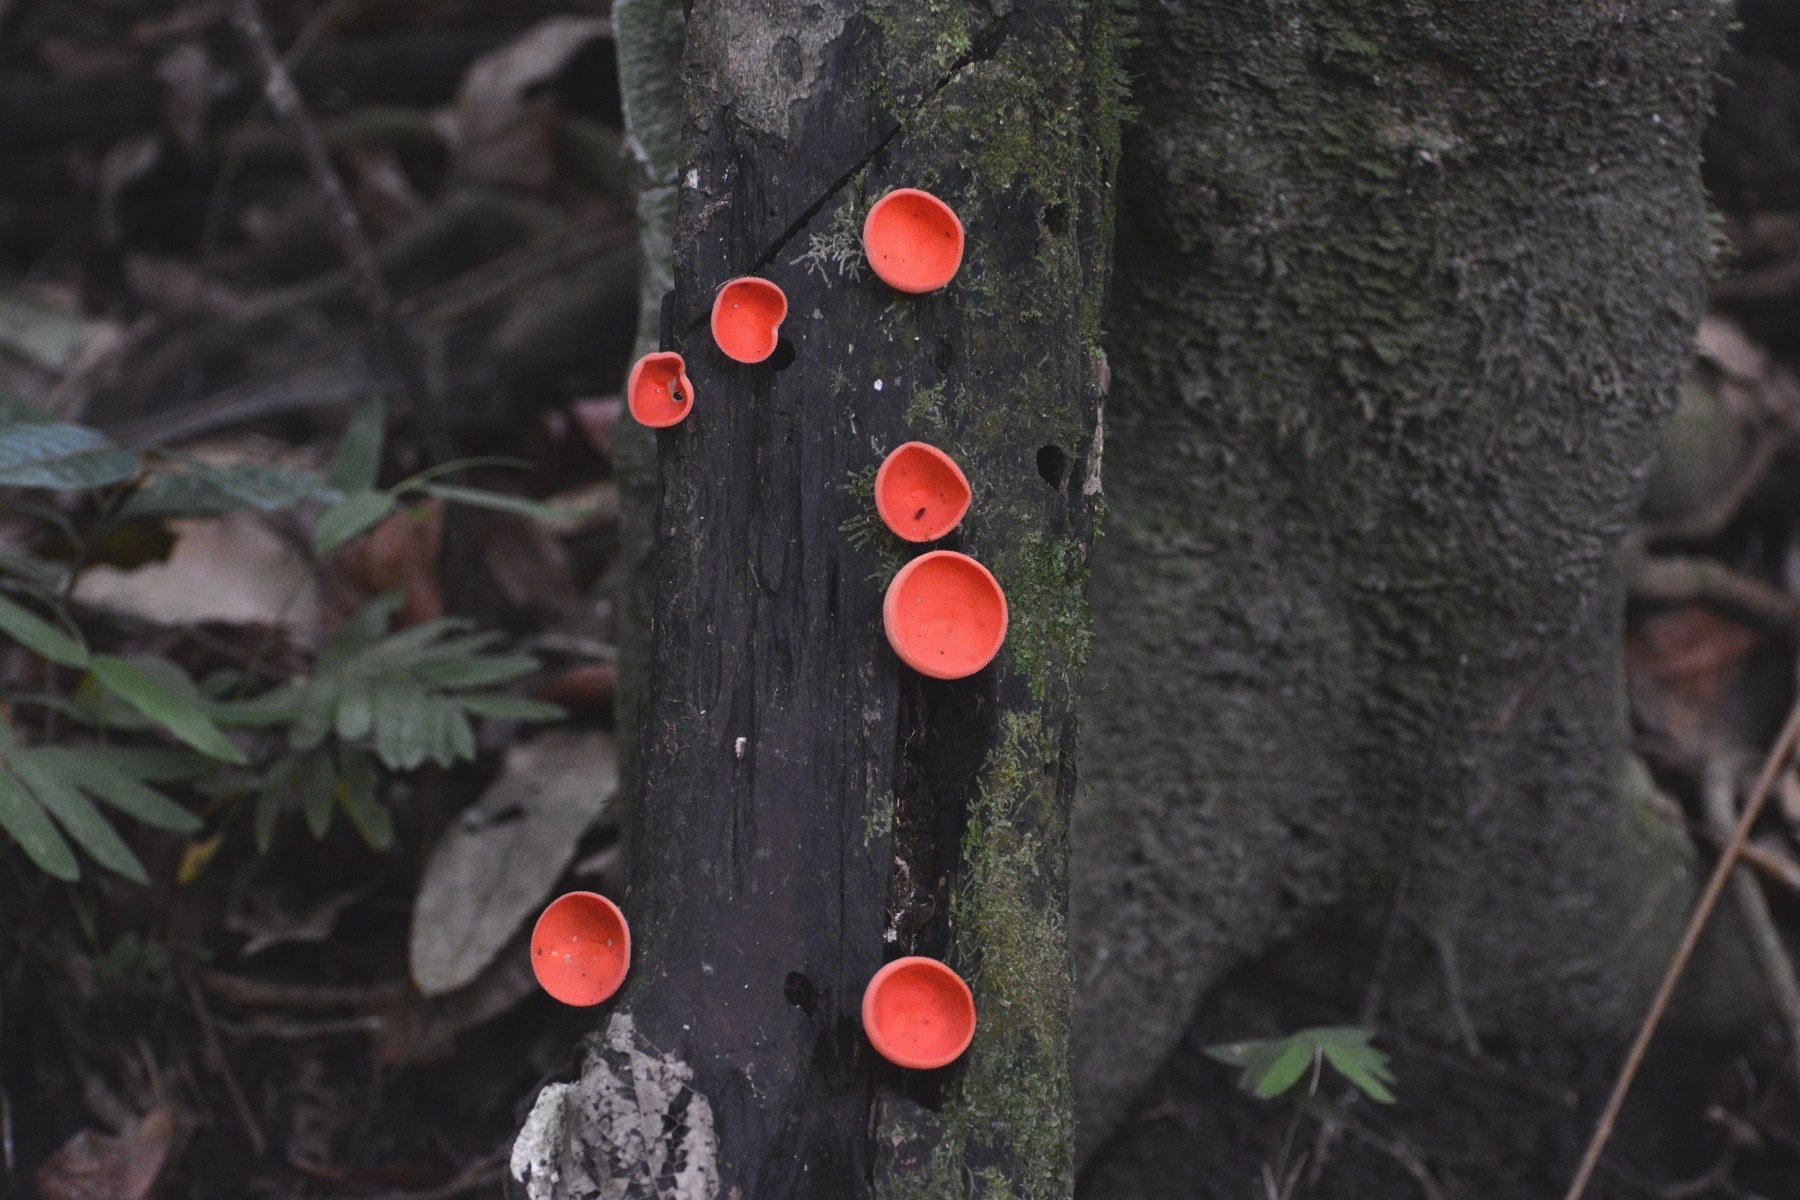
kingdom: Fungi
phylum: Ascomycota
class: Pezizomycetes
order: Pezizales
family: Sarcoscyphaceae
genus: Cookeina
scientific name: Cookeina sulcipes
